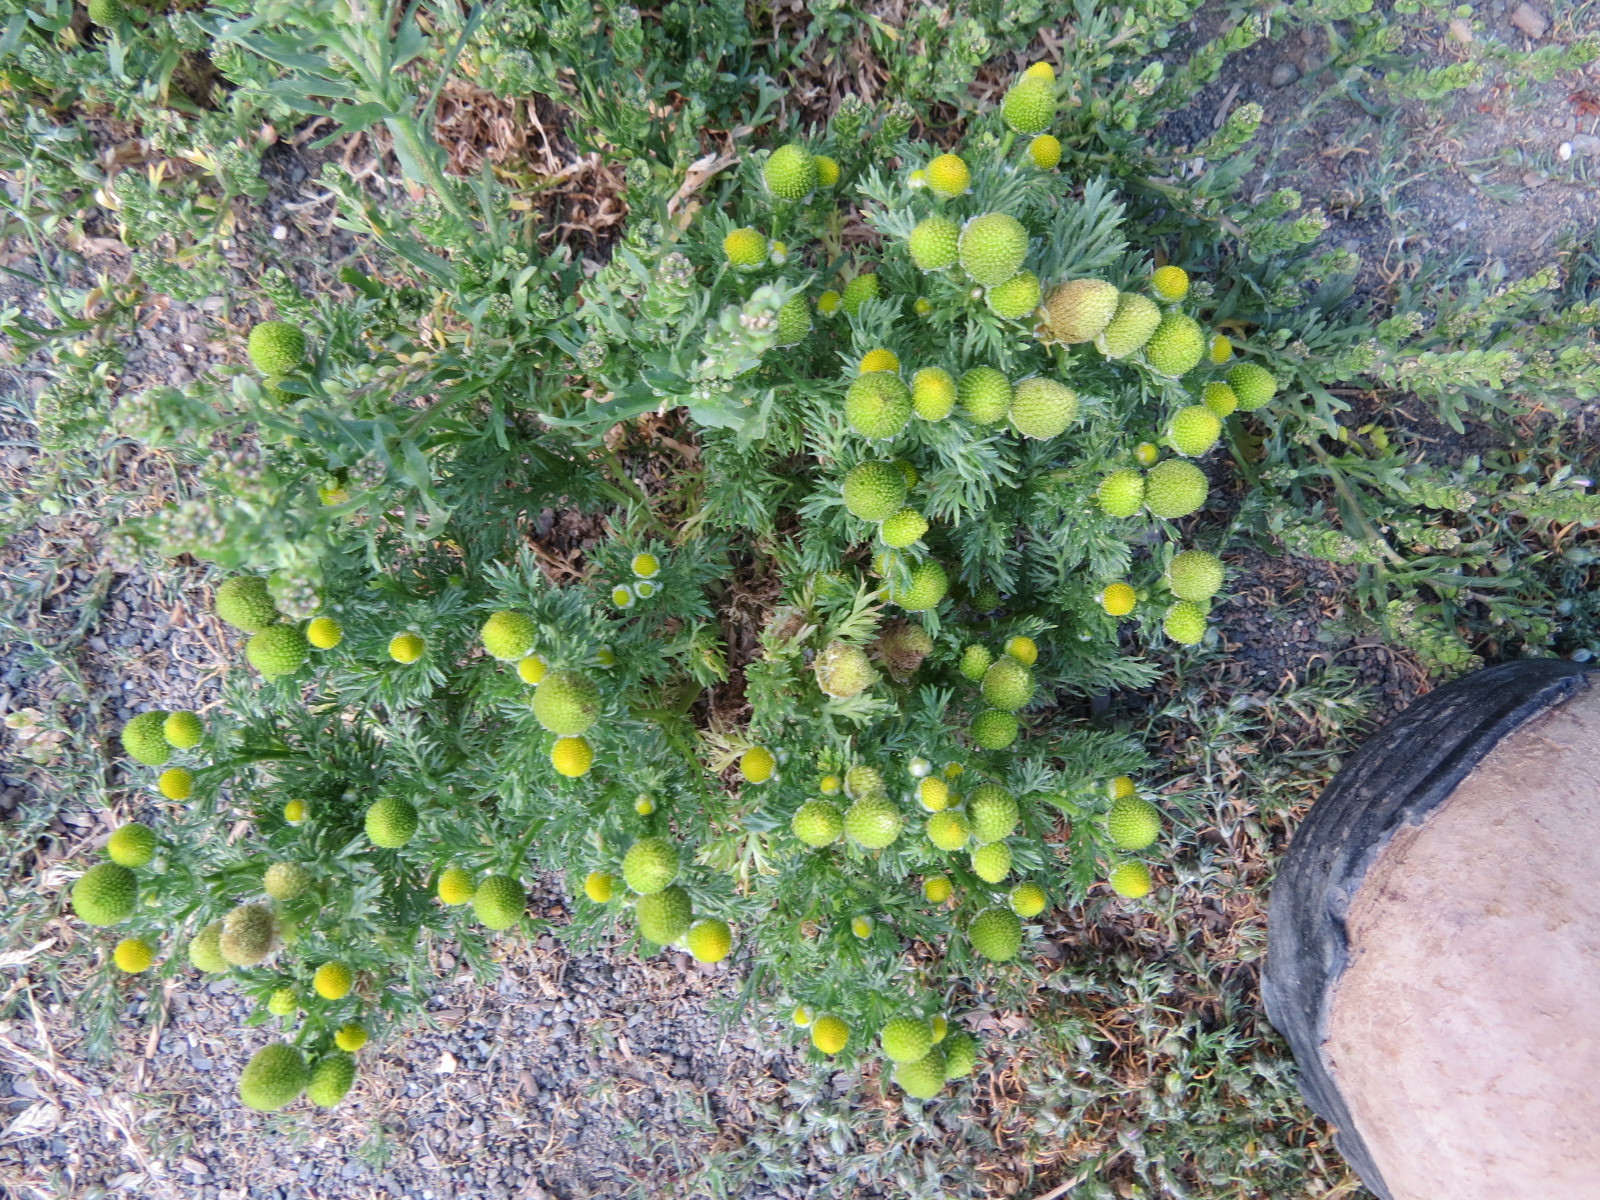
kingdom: Plantae
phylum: Tracheophyta
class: Magnoliopsida
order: Asterales
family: Asteraceae
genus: Matricaria
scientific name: Matricaria discoidea
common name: Disc mayweed
